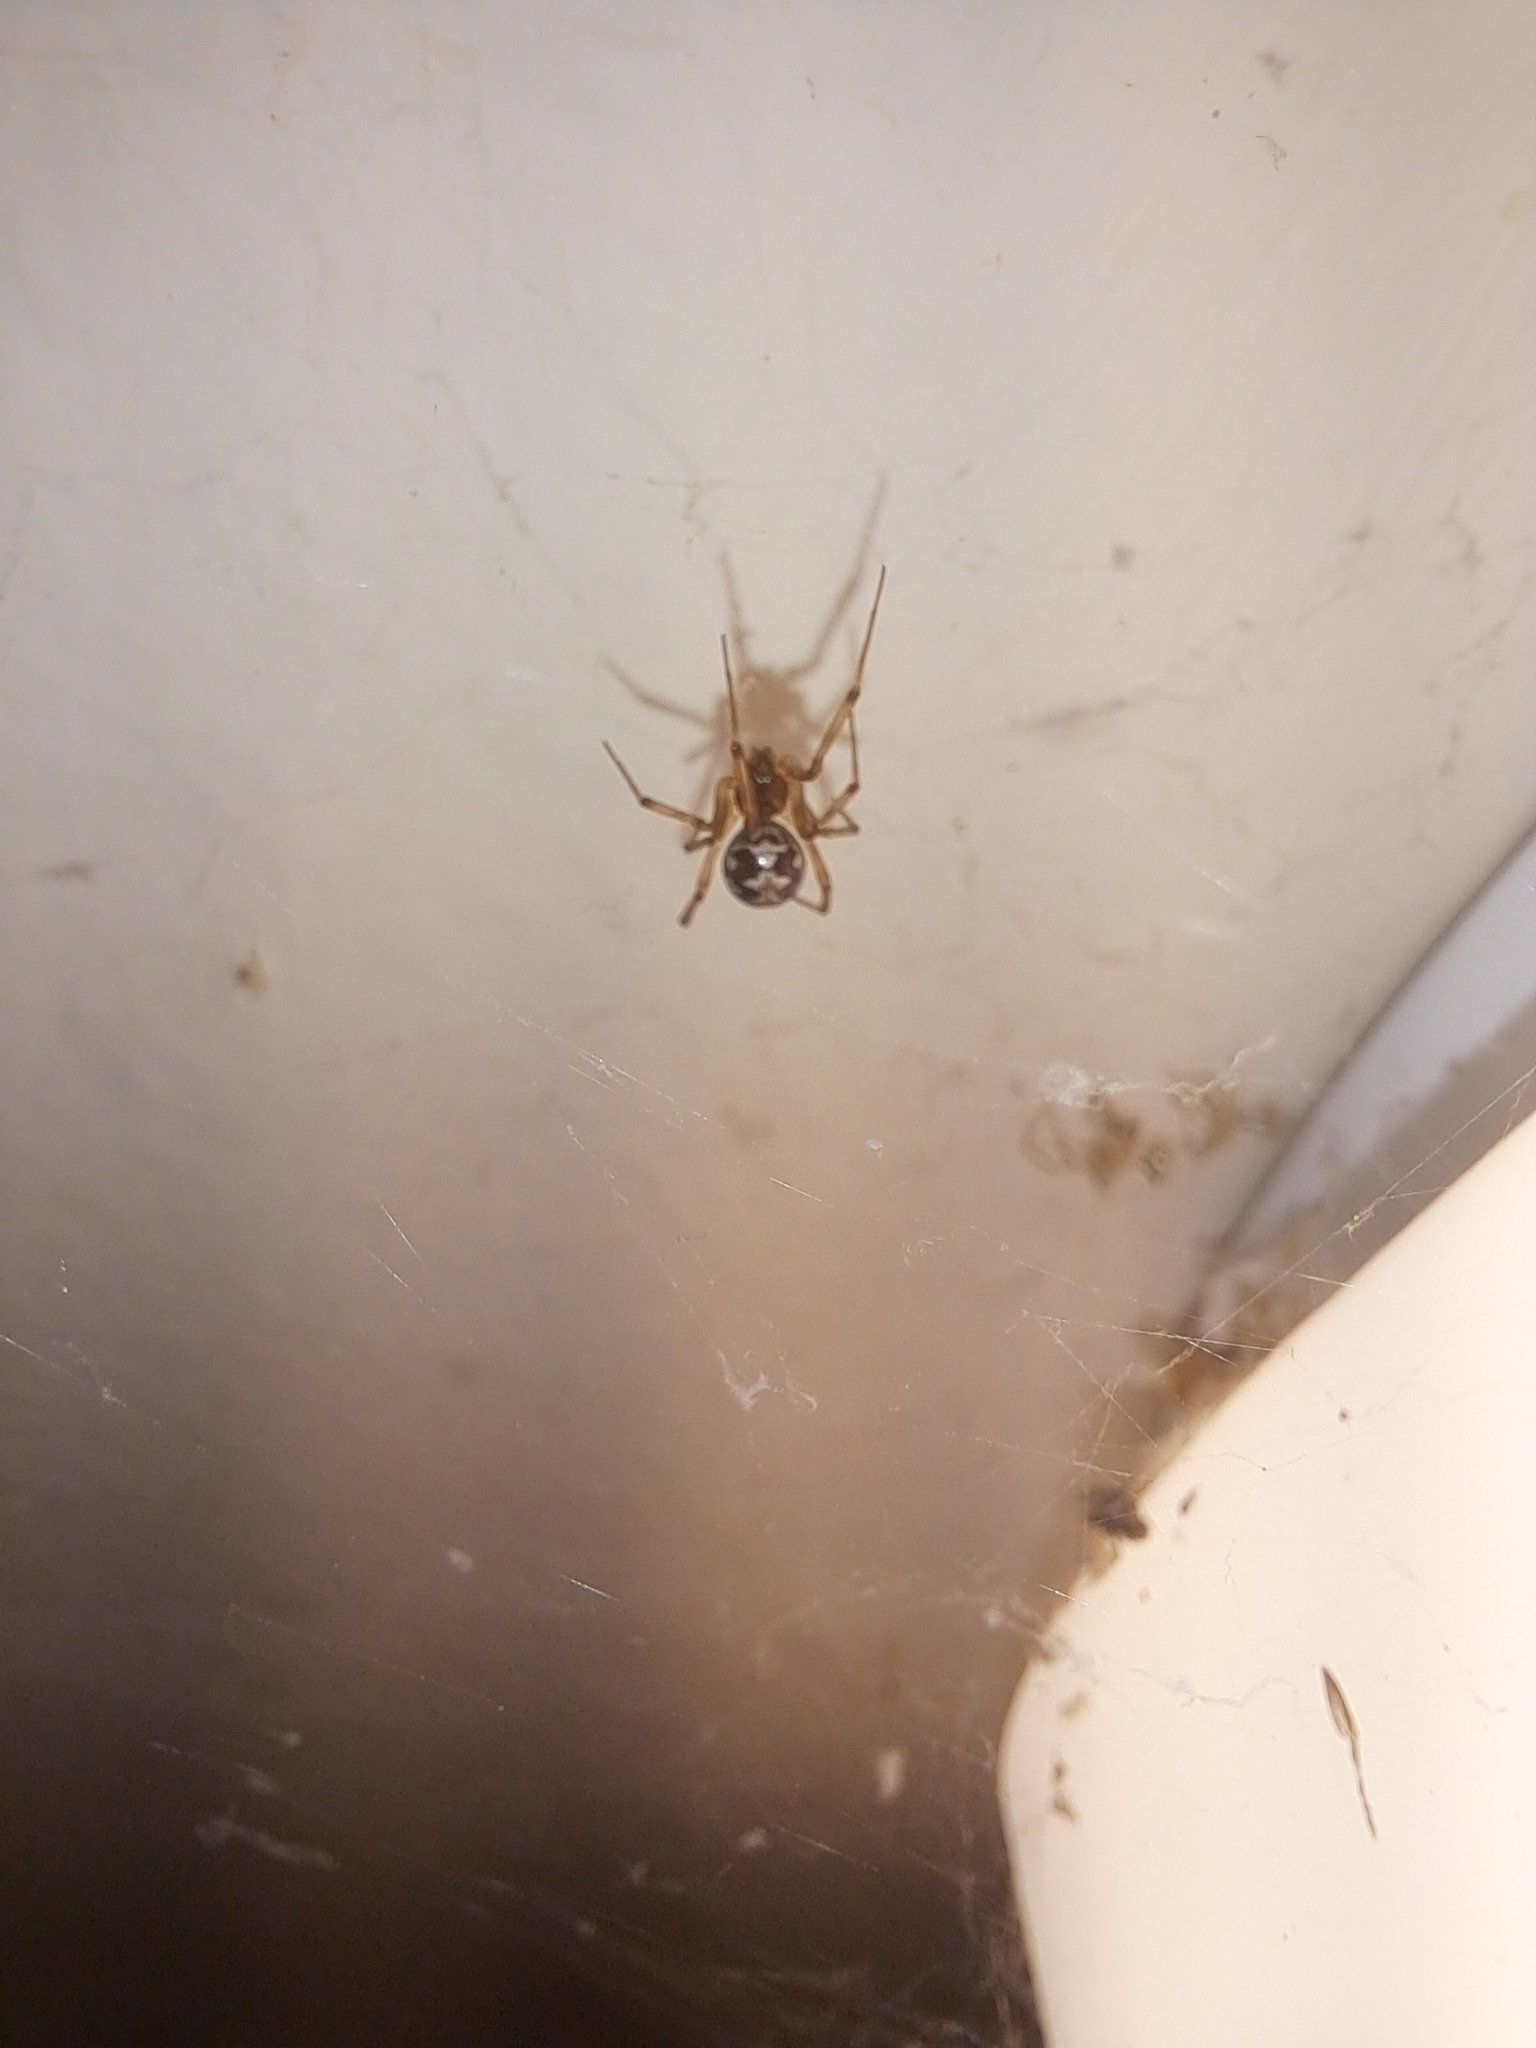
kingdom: Animalia
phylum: Arthropoda
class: Arachnida
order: Araneae
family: Theridiidae
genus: Steatoda
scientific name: Steatoda triangulosa
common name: Triangulate bud spider
